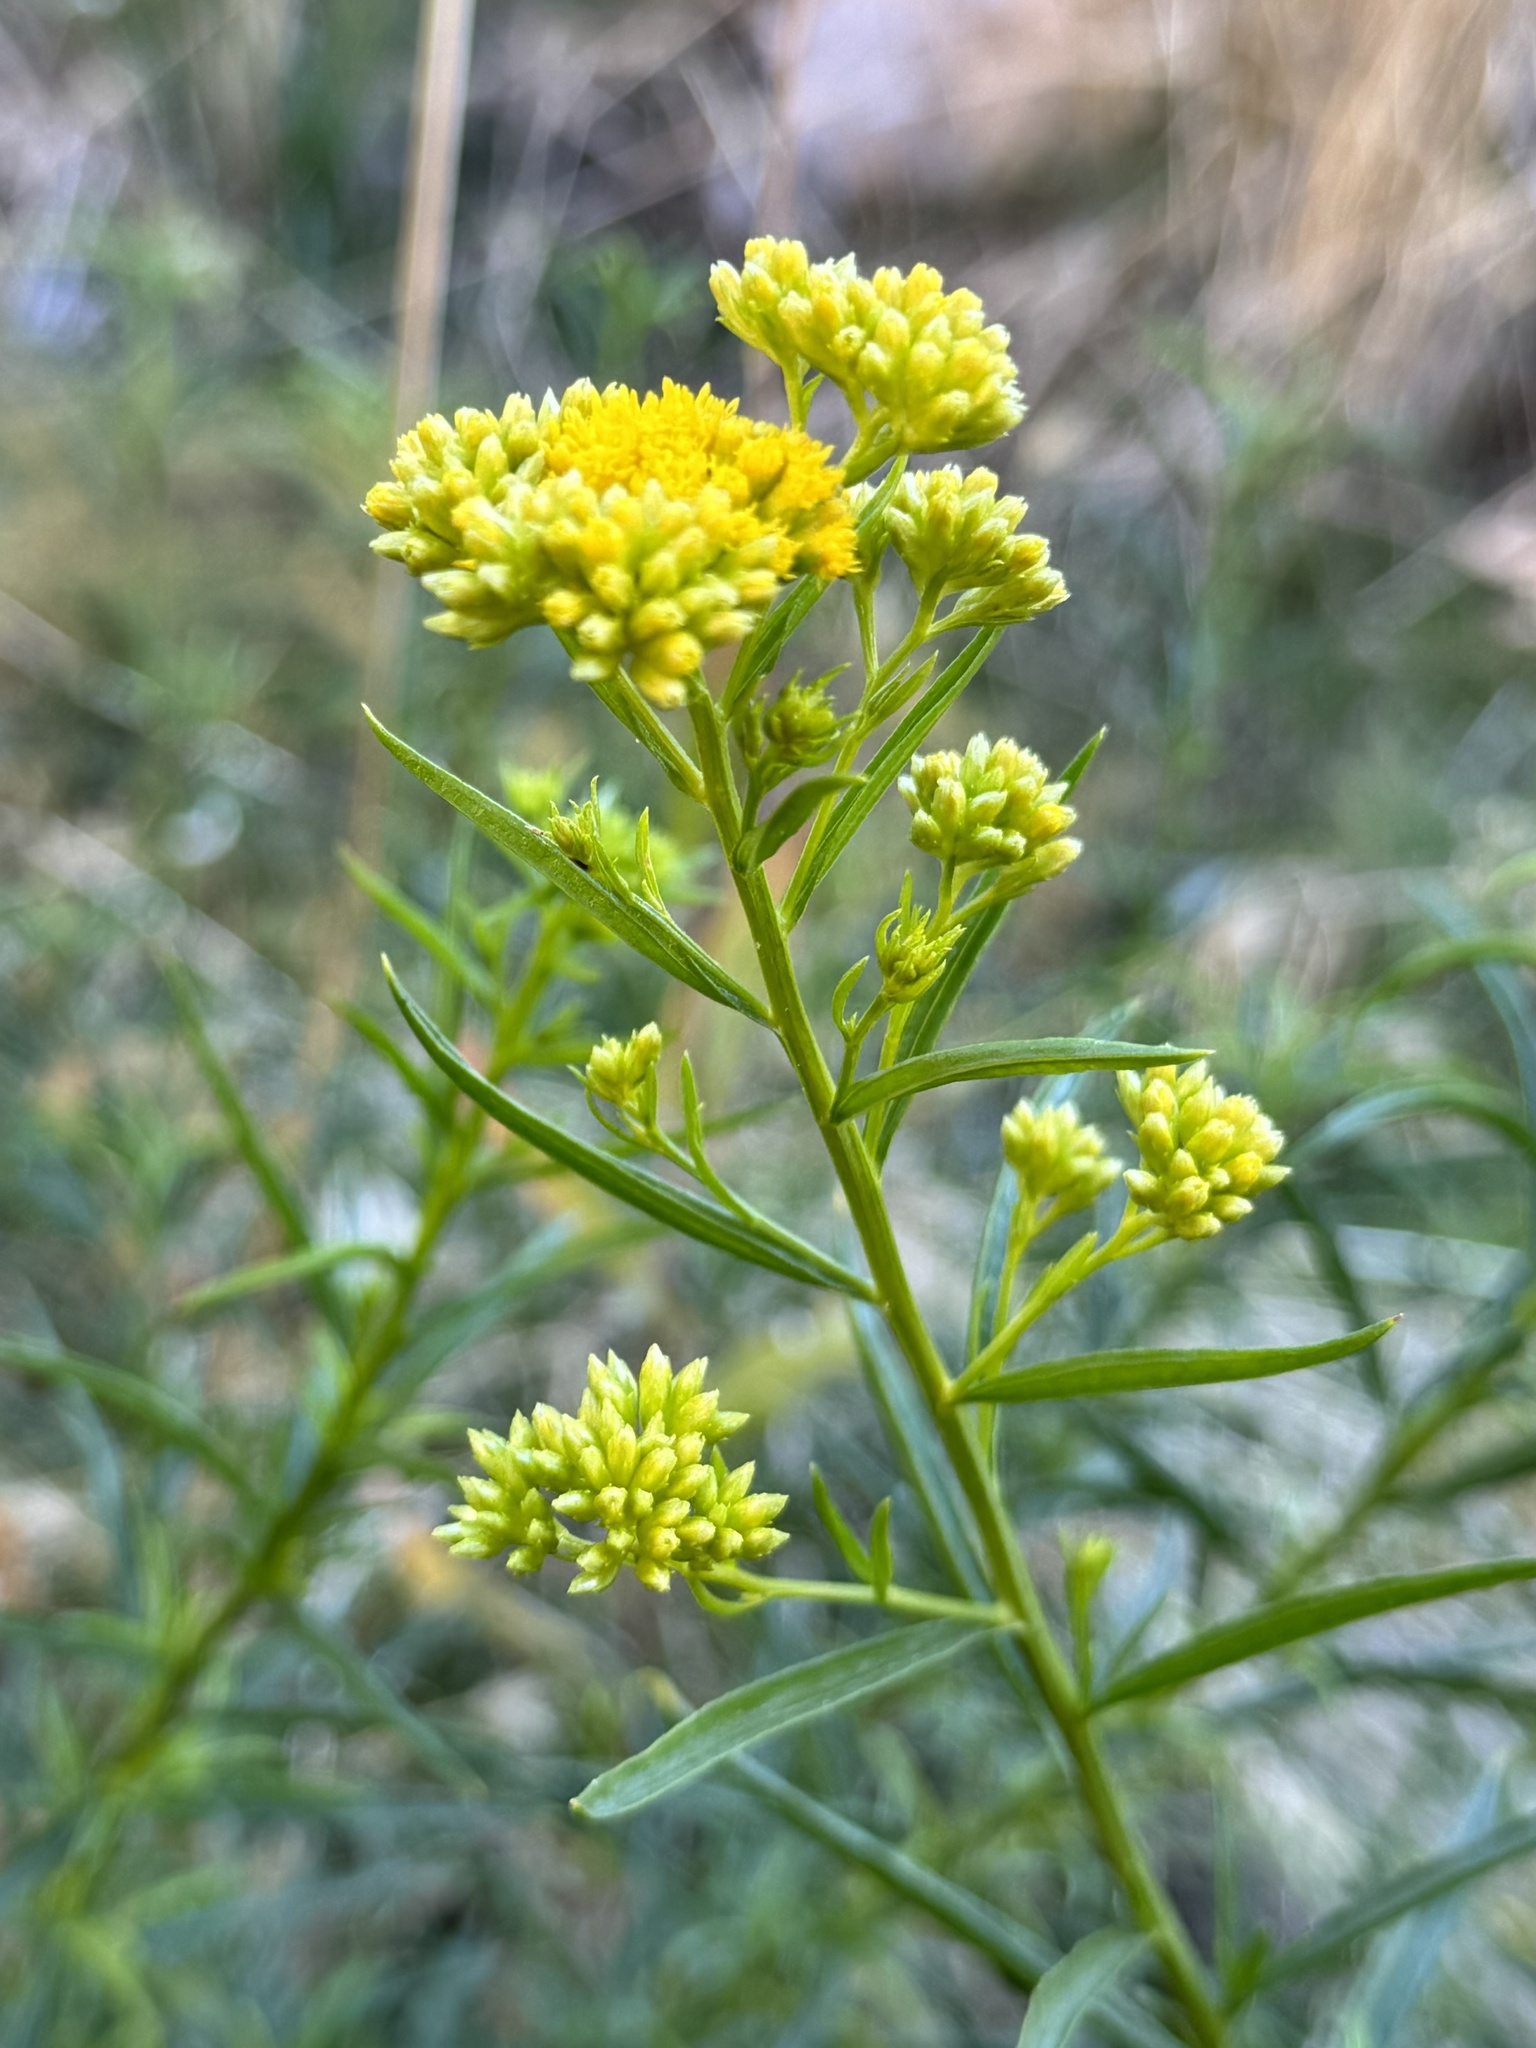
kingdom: Plantae
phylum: Tracheophyta
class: Magnoliopsida
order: Asterales
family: Asteraceae
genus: Gymnosperma
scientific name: Gymnosperma glutinosum
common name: Gumhead
